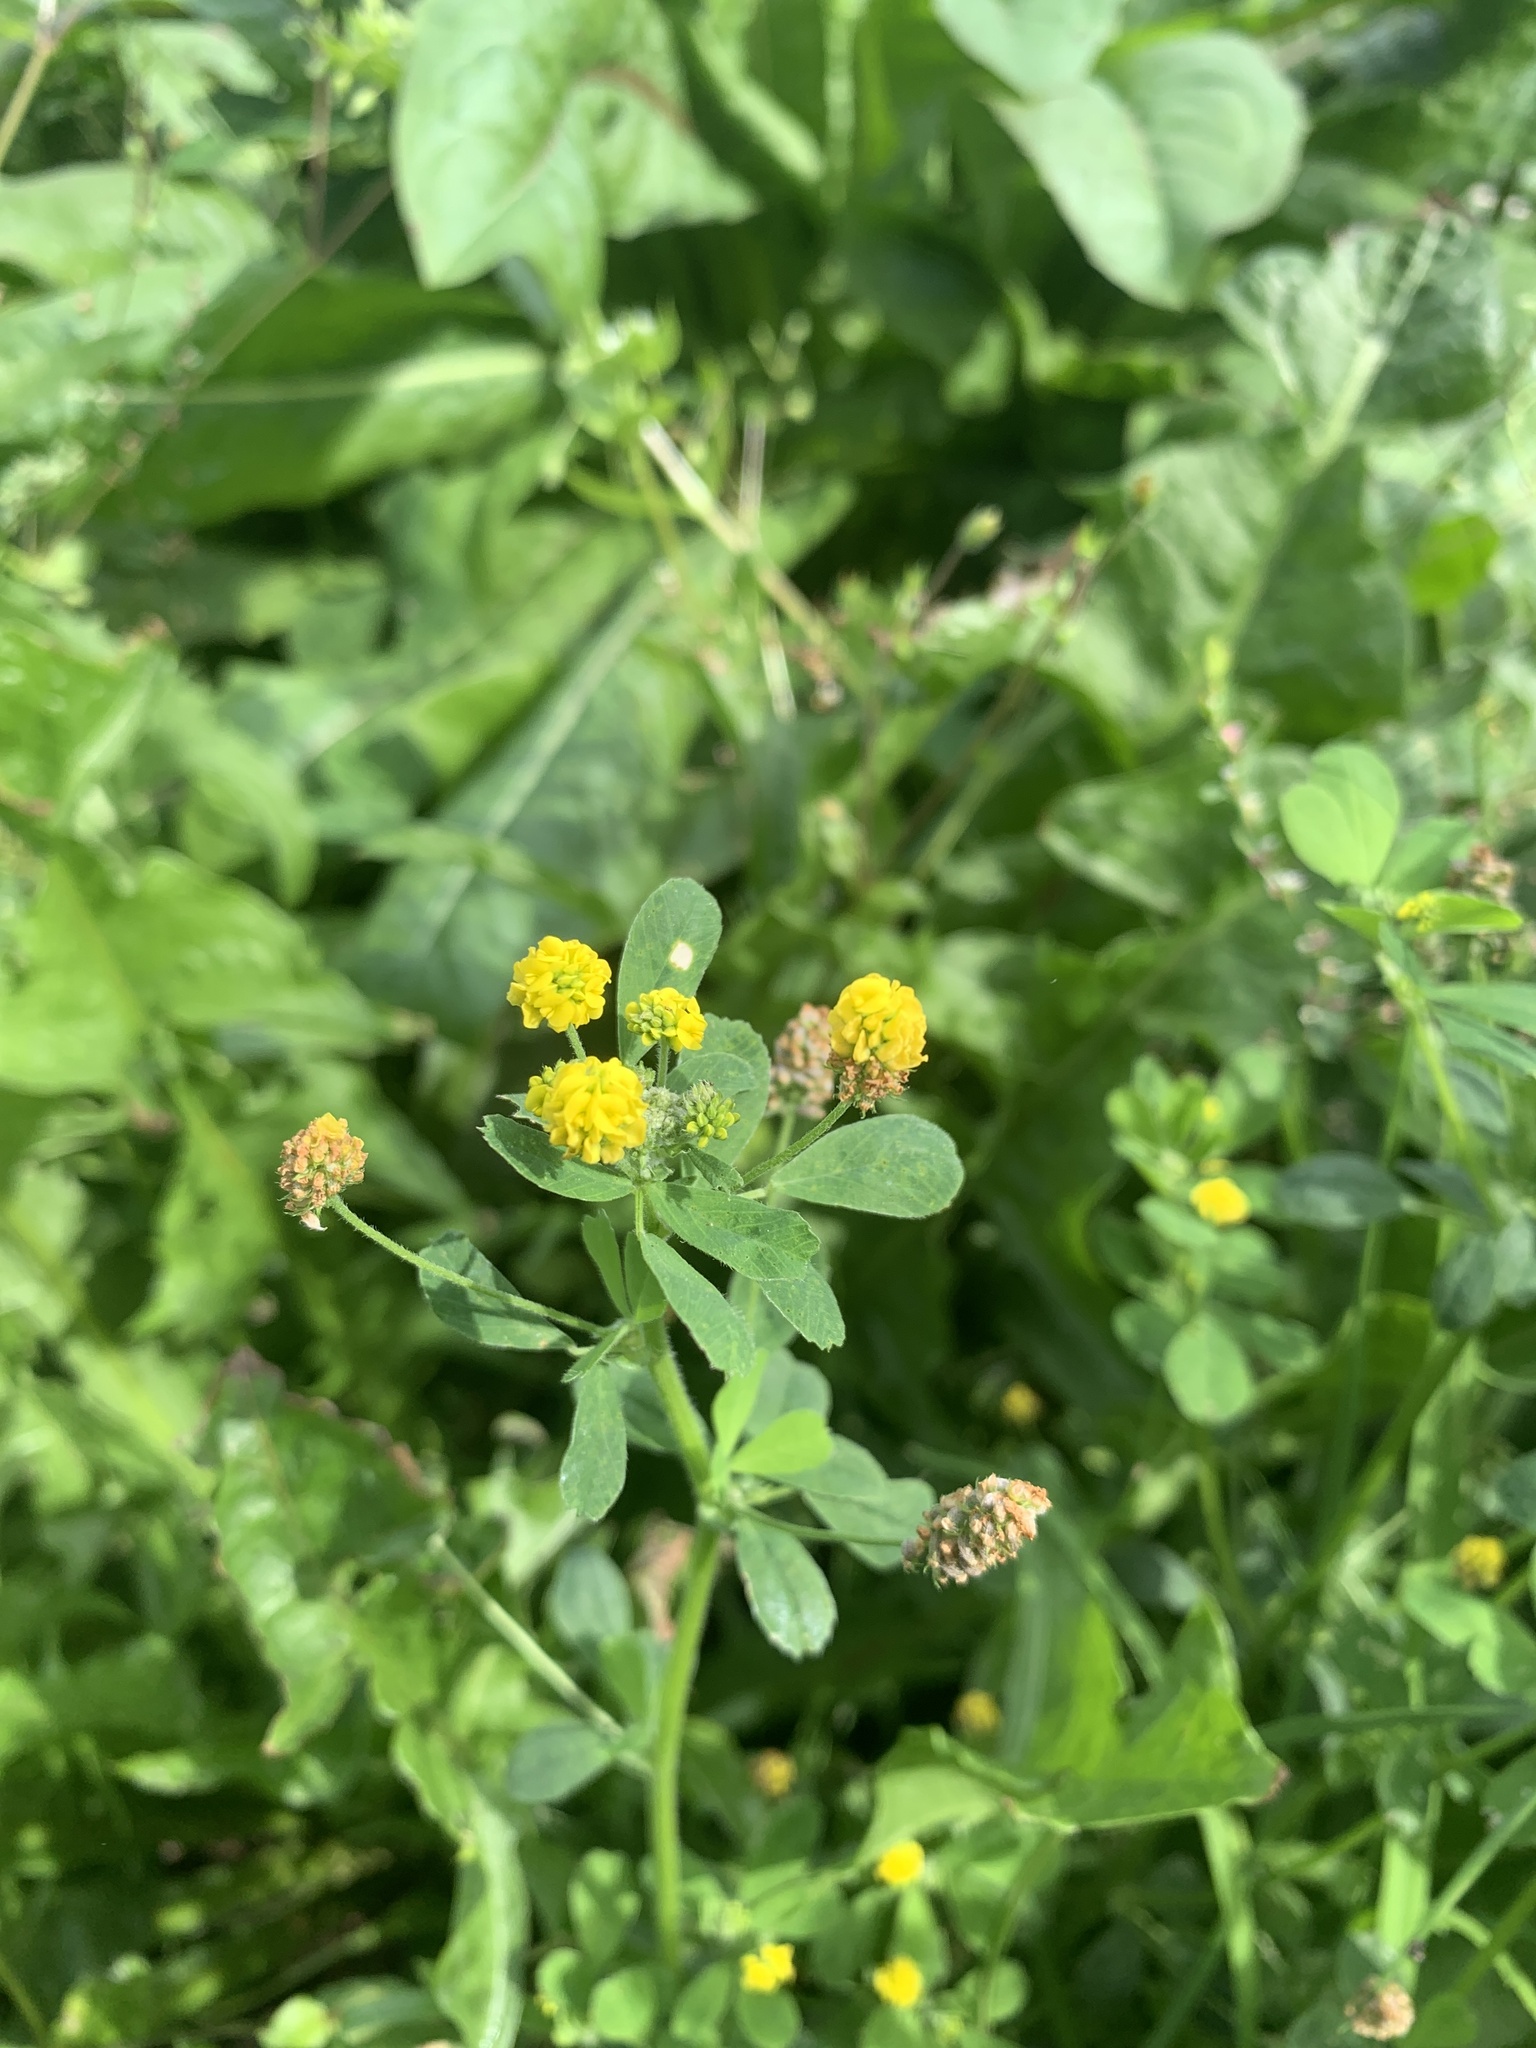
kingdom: Plantae
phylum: Tracheophyta
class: Magnoliopsida
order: Fabales
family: Fabaceae
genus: Medicago
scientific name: Medicago lupulina
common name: Black medick
